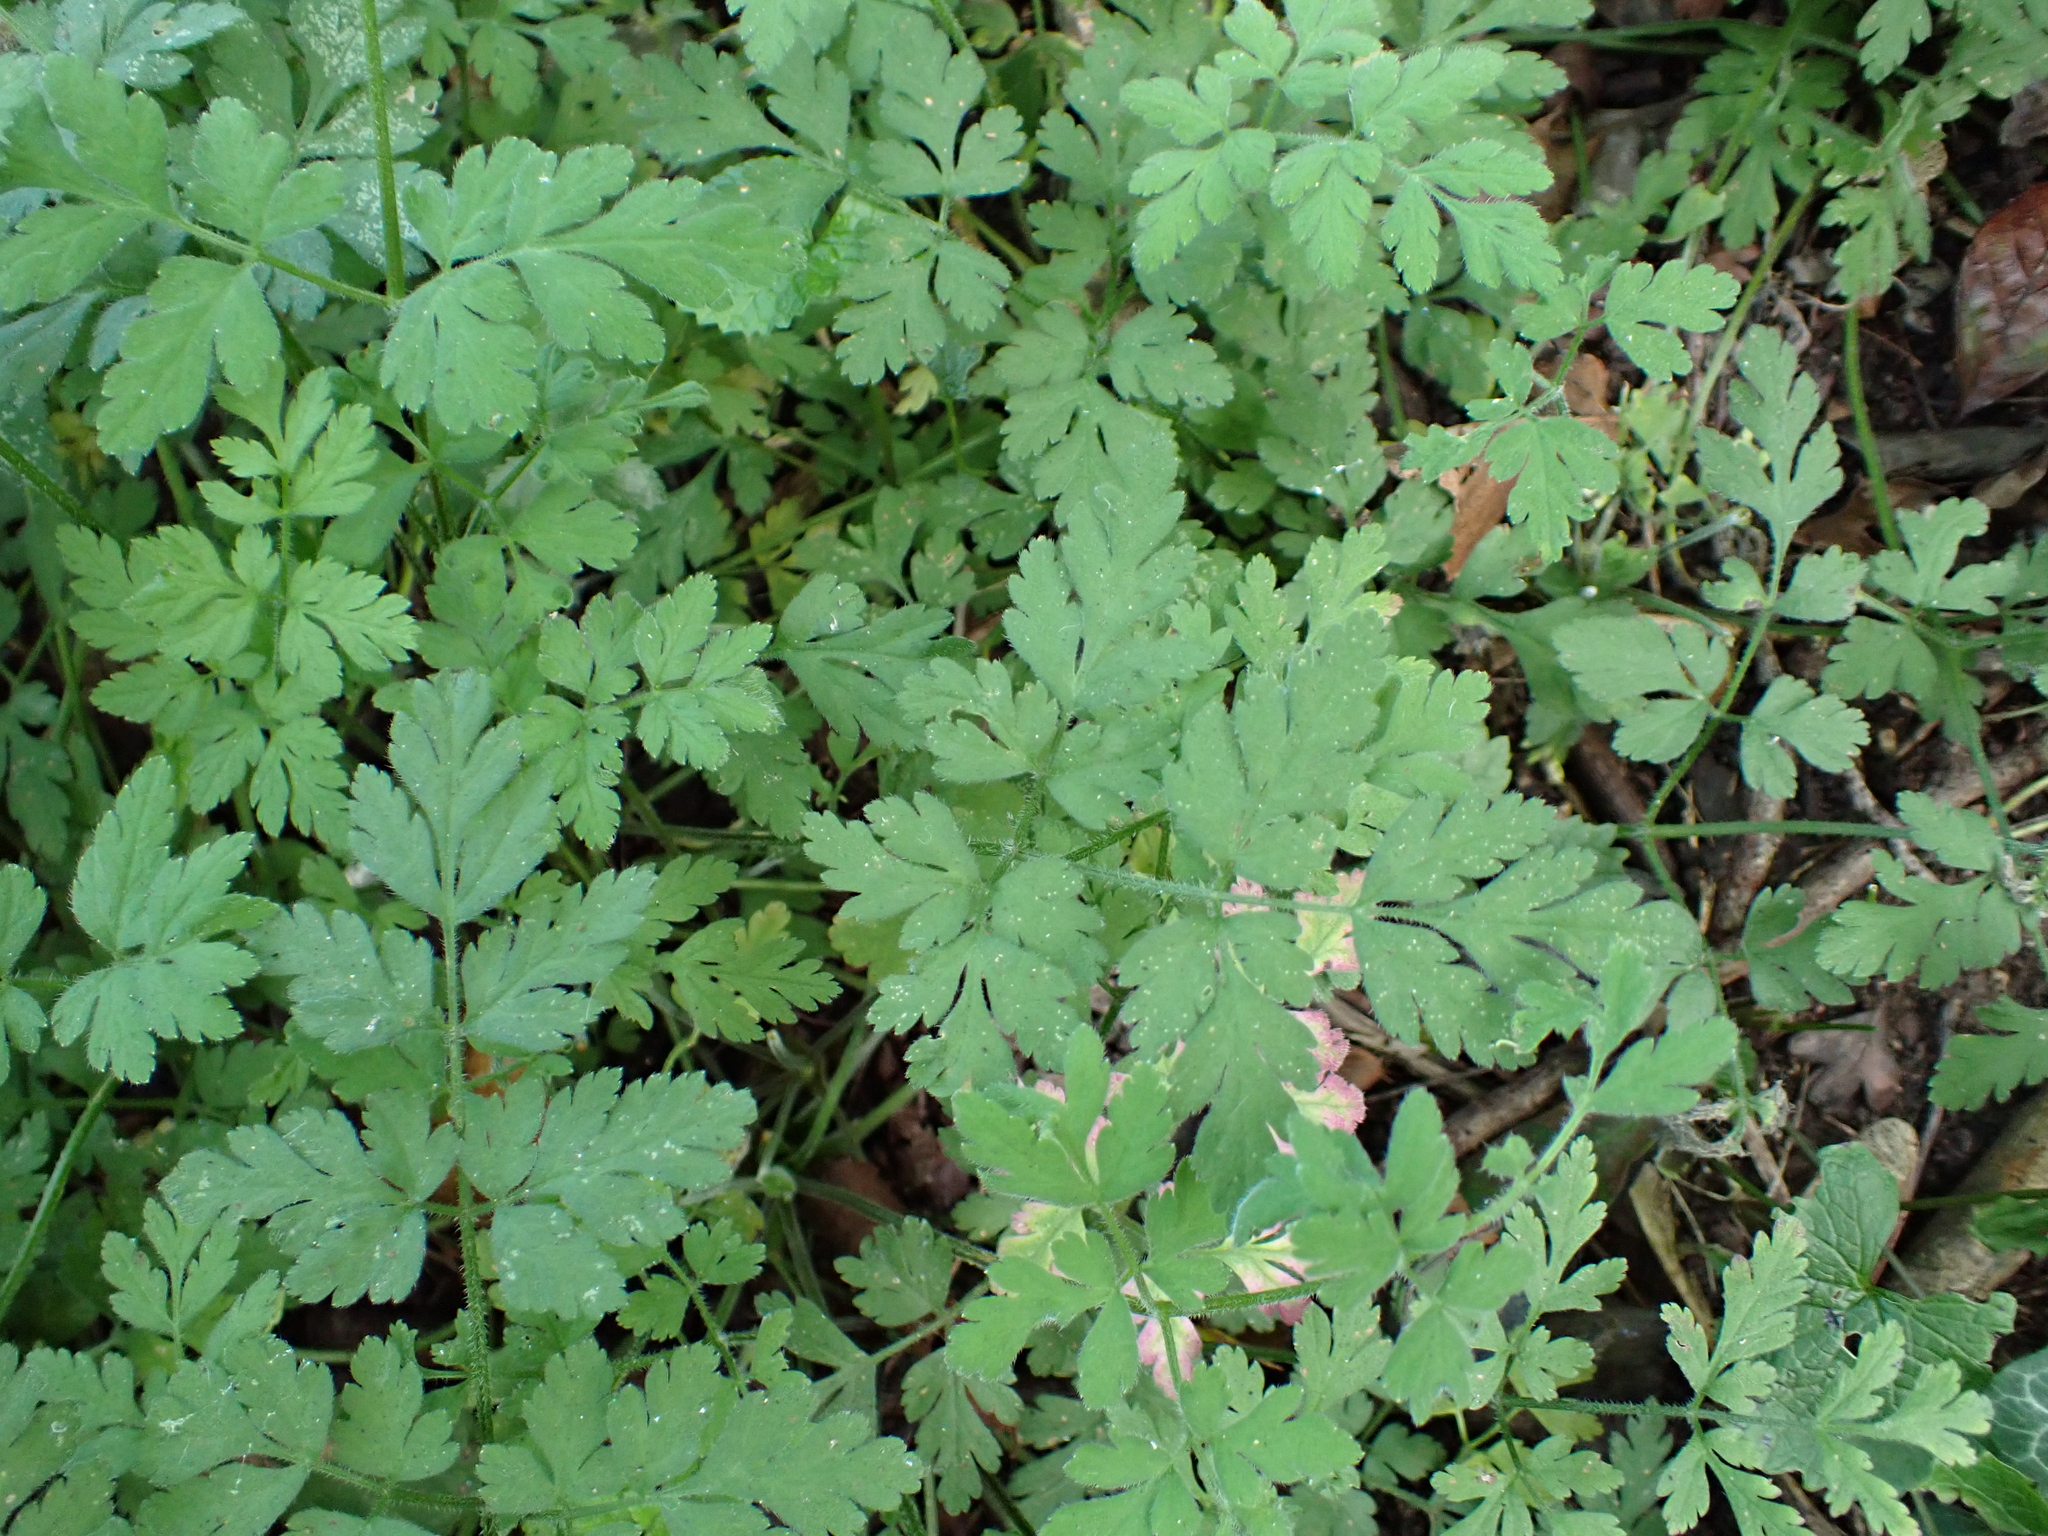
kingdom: Plantae
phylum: Tracheophyta
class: Magnoliopsida
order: Geraniales
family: Geraniaceae
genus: Geranium
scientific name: Geranium robertianum
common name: Herb-robert
